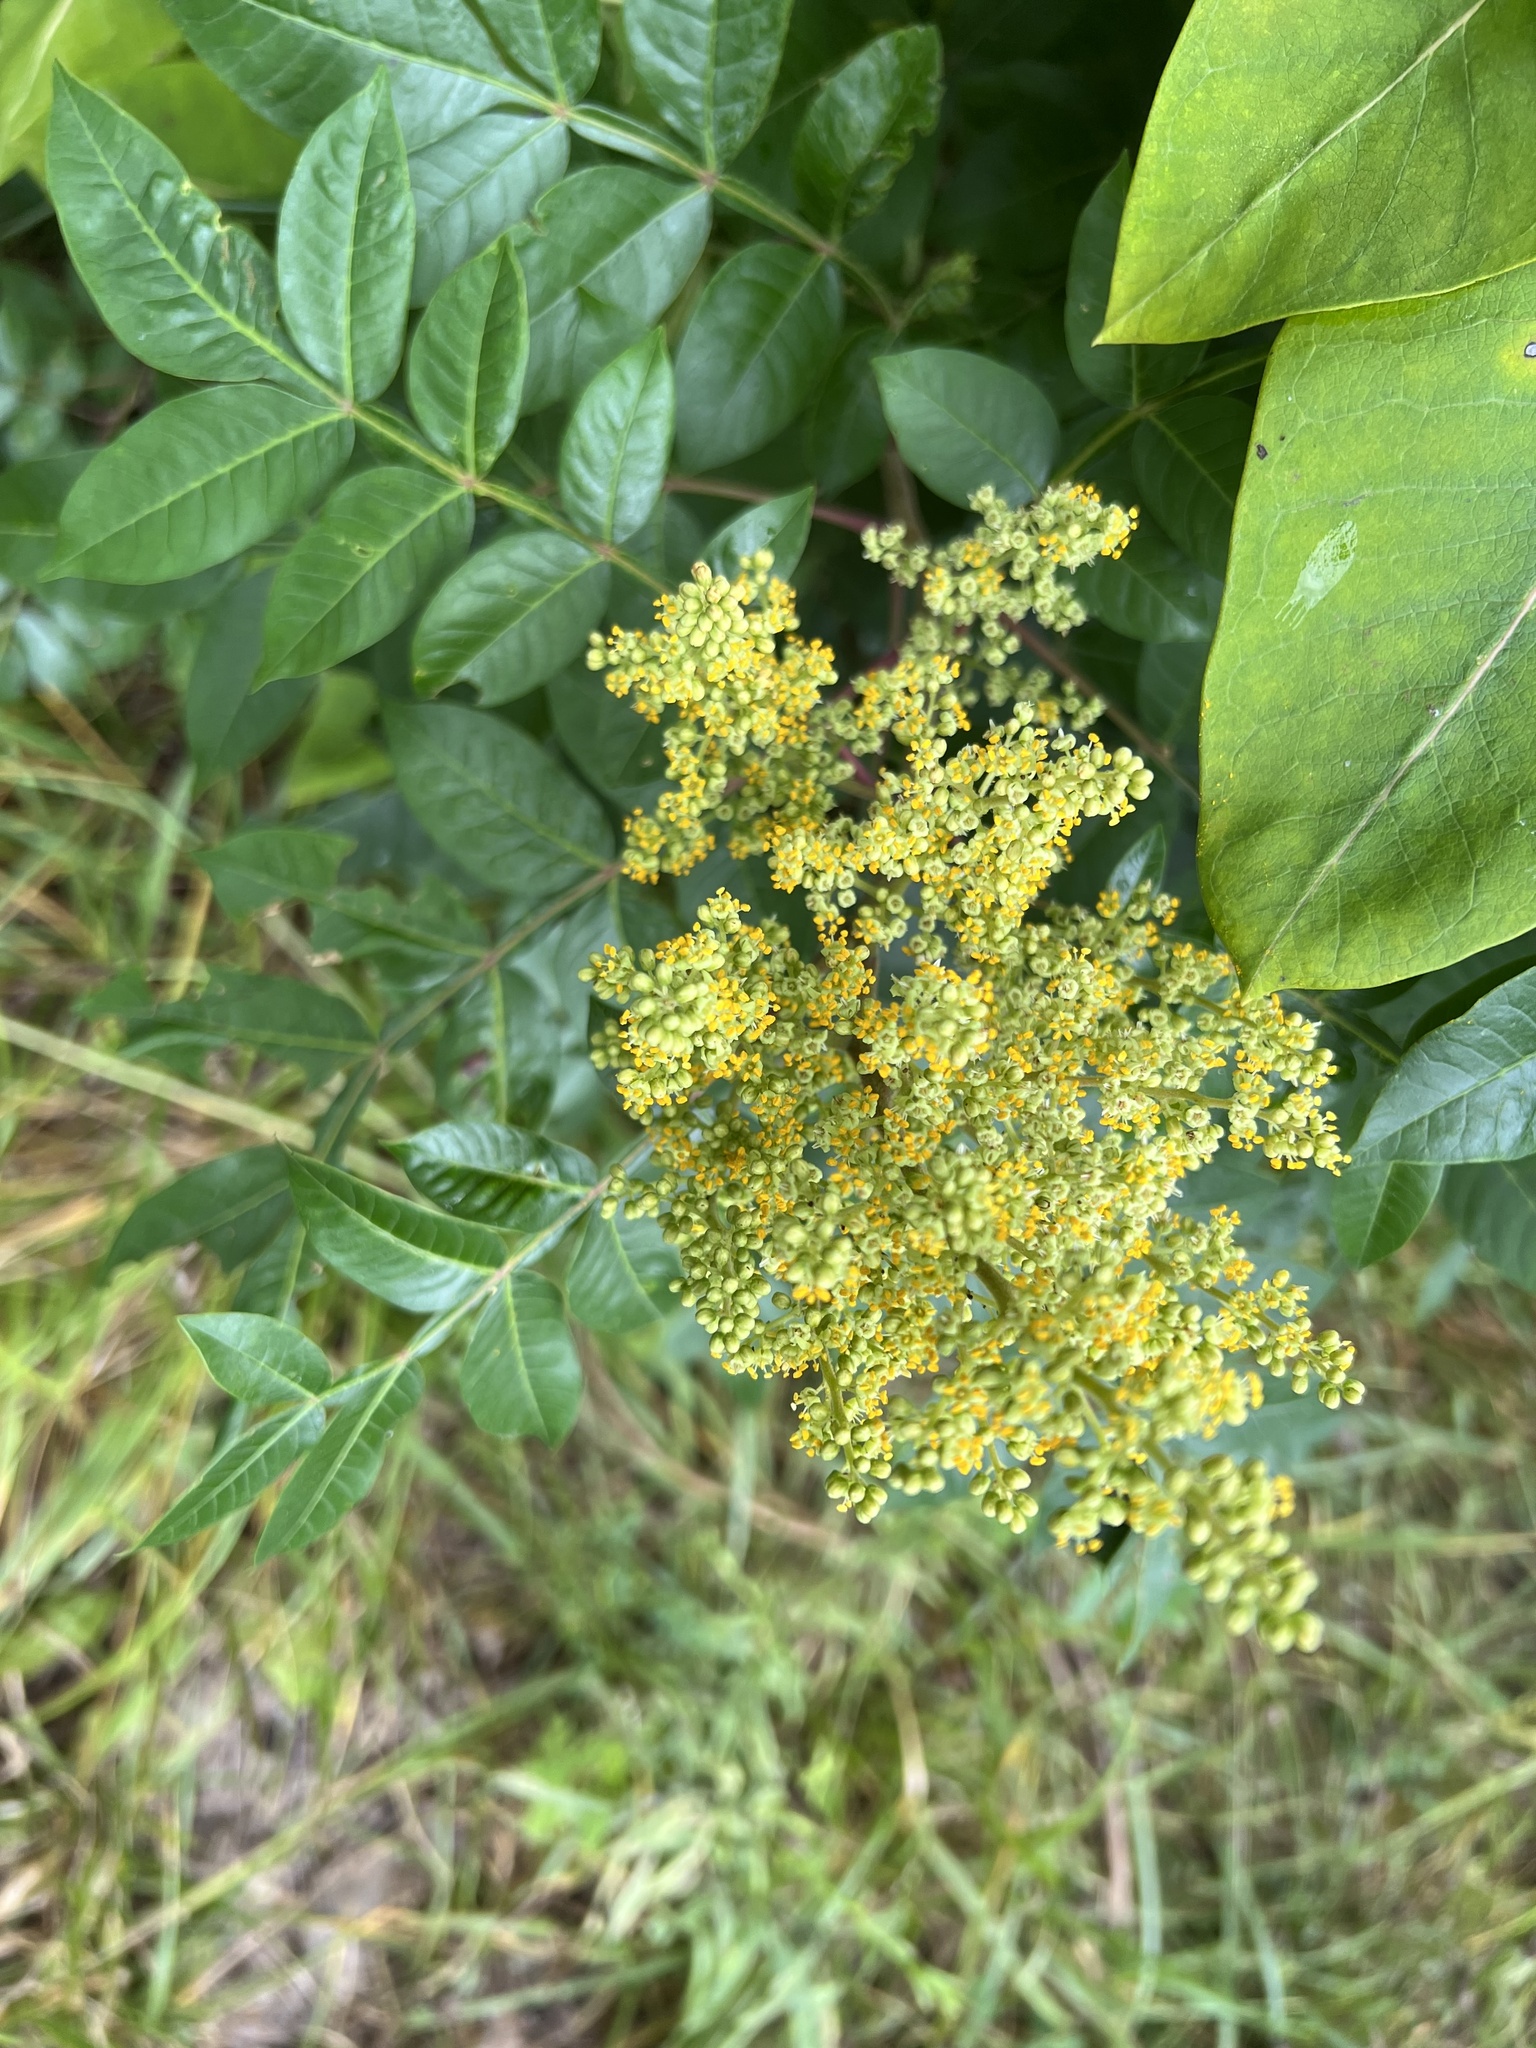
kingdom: Plantae
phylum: Tracheophyta
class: Magnoliopsida
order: Sapindales
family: Anacardiaceae
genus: Rhus
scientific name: Rhus copallina
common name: Shining sumac
